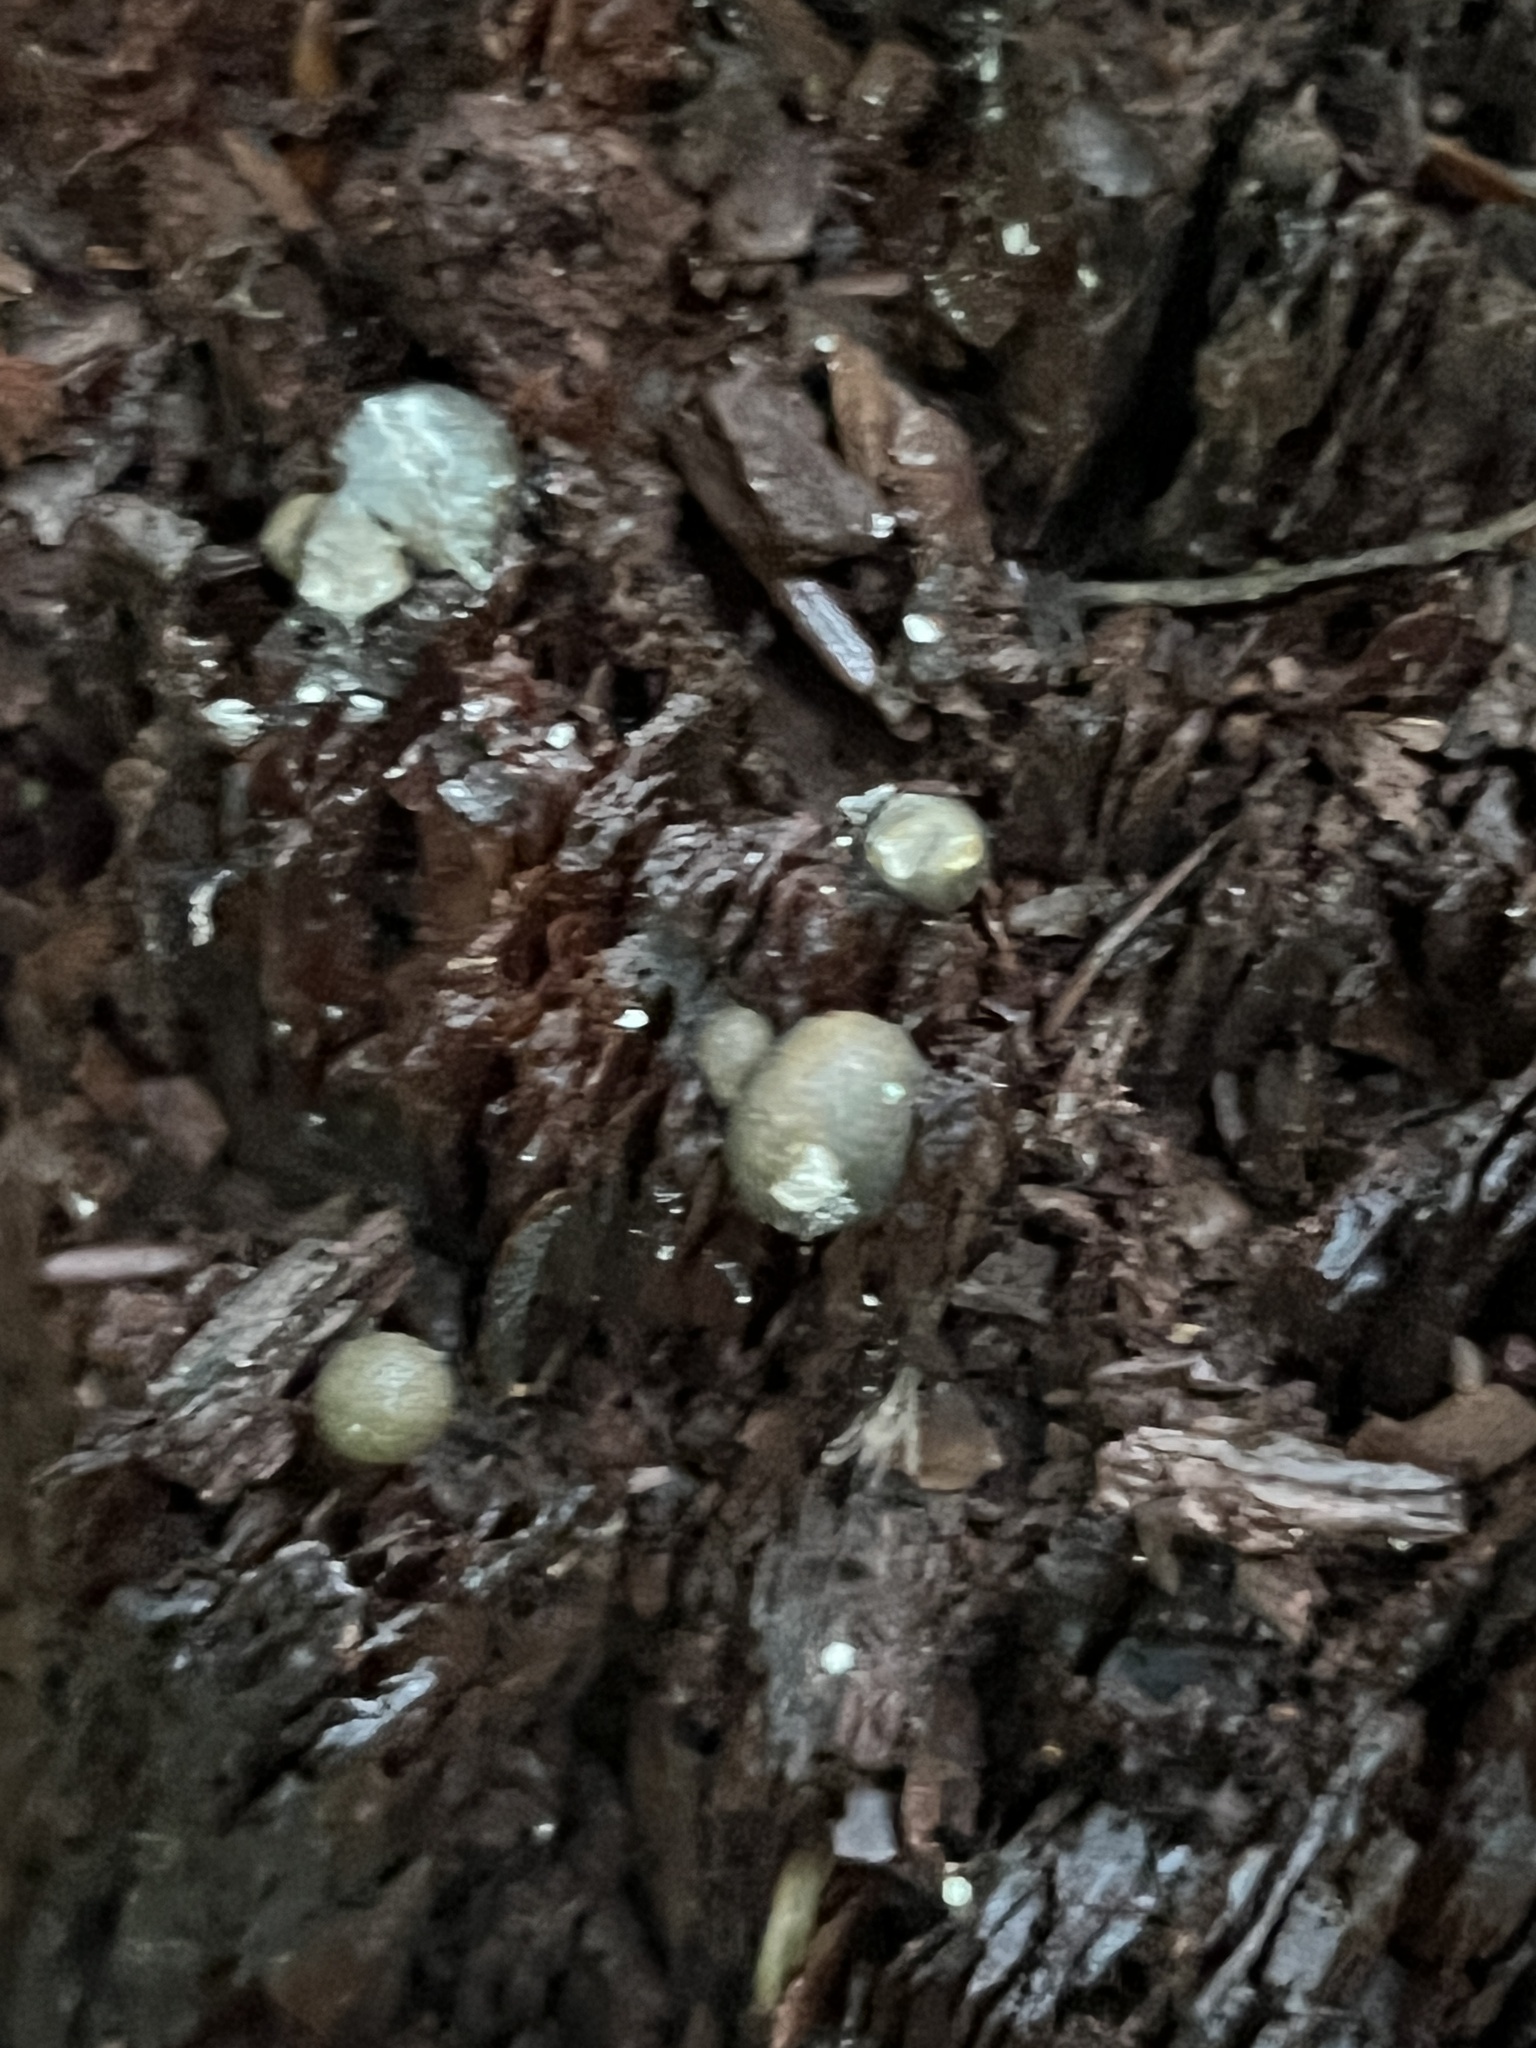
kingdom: Protozoa
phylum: Mycetozoa
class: Myxomycetes
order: Cribrariales
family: Tubiferaceae
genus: Lycogala
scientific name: Lycogala epidendrum
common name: Wolf's milk
